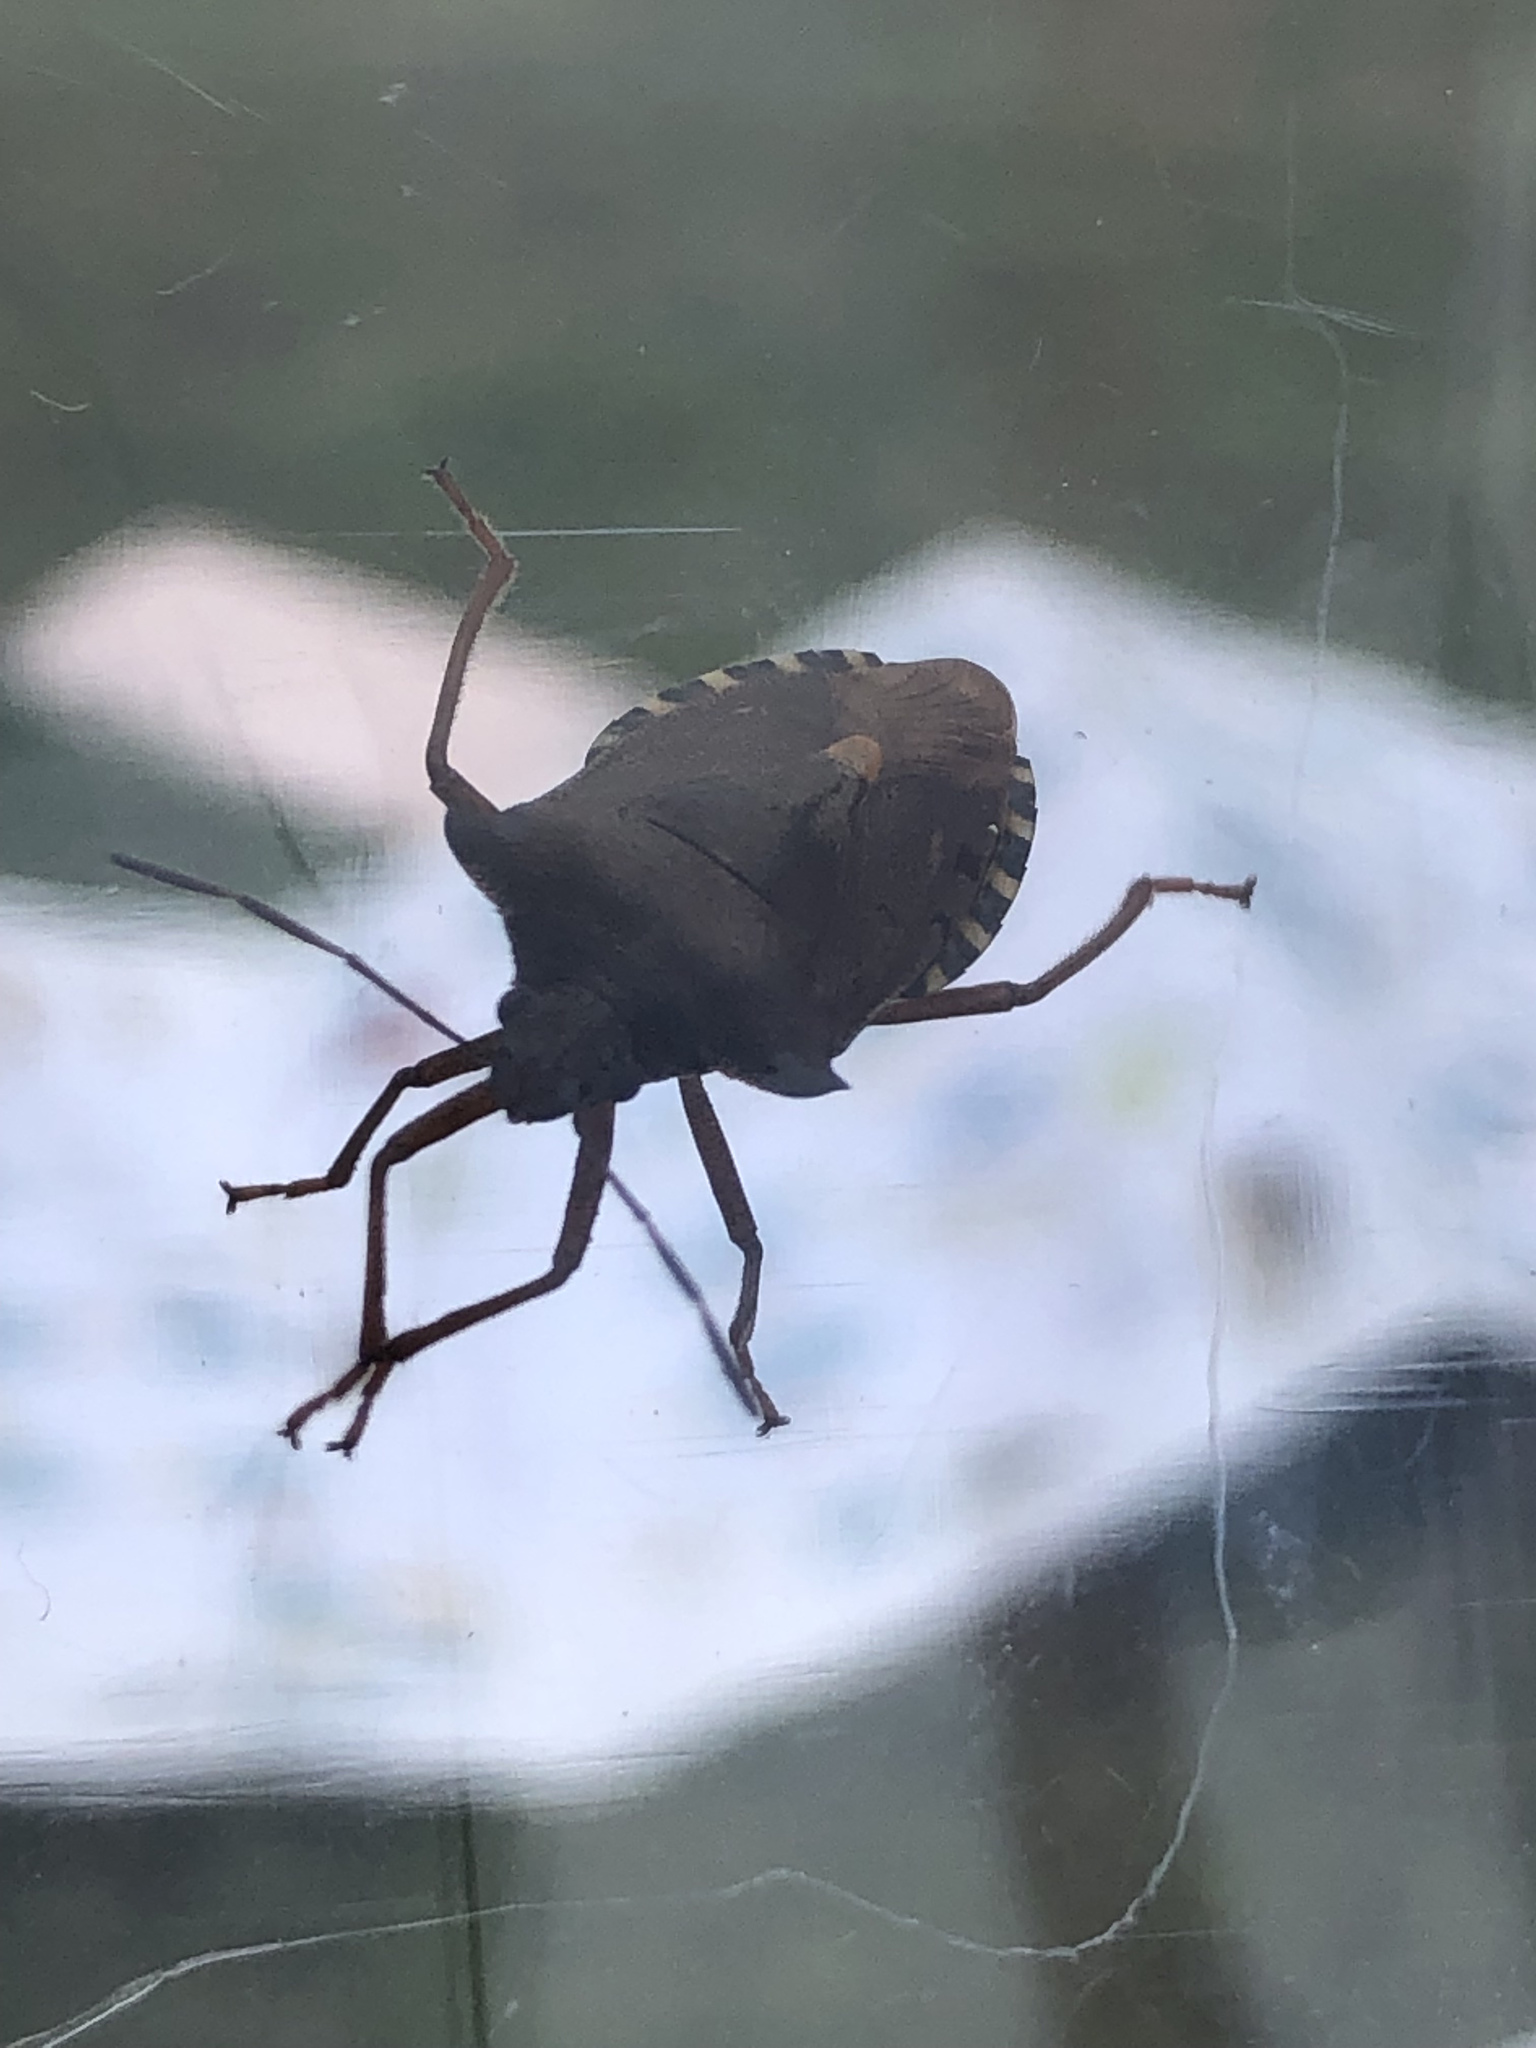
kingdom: Animalia
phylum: Arthropoda
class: Insecta
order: Hemiptera
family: Pentatomidae
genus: Pentatoma
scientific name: Pentatoma rufipes
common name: Forest bug
